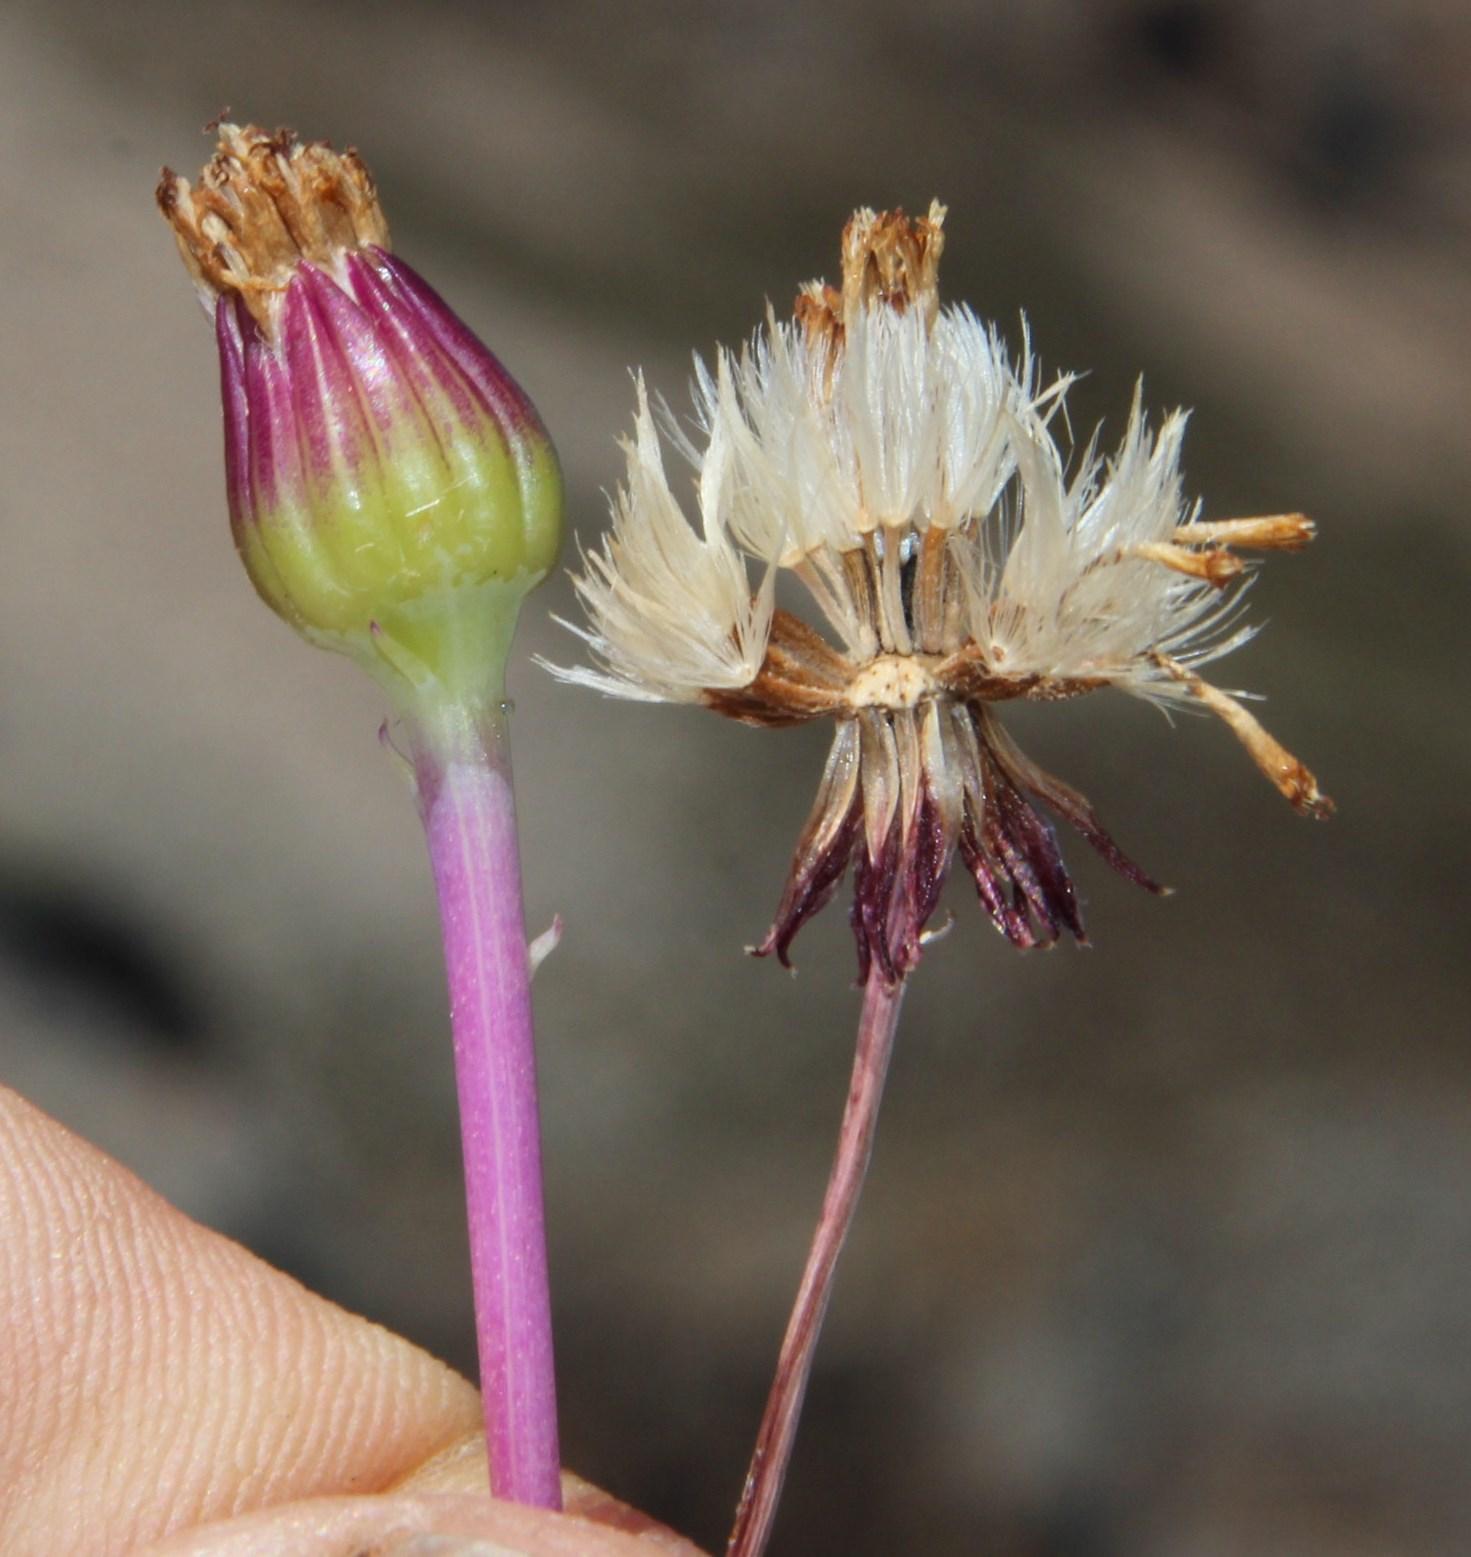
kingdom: Plantae
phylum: Tracheophyta
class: Magnoliopsida
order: Asterales
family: Asteraceae
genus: Curio
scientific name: Curio repens
